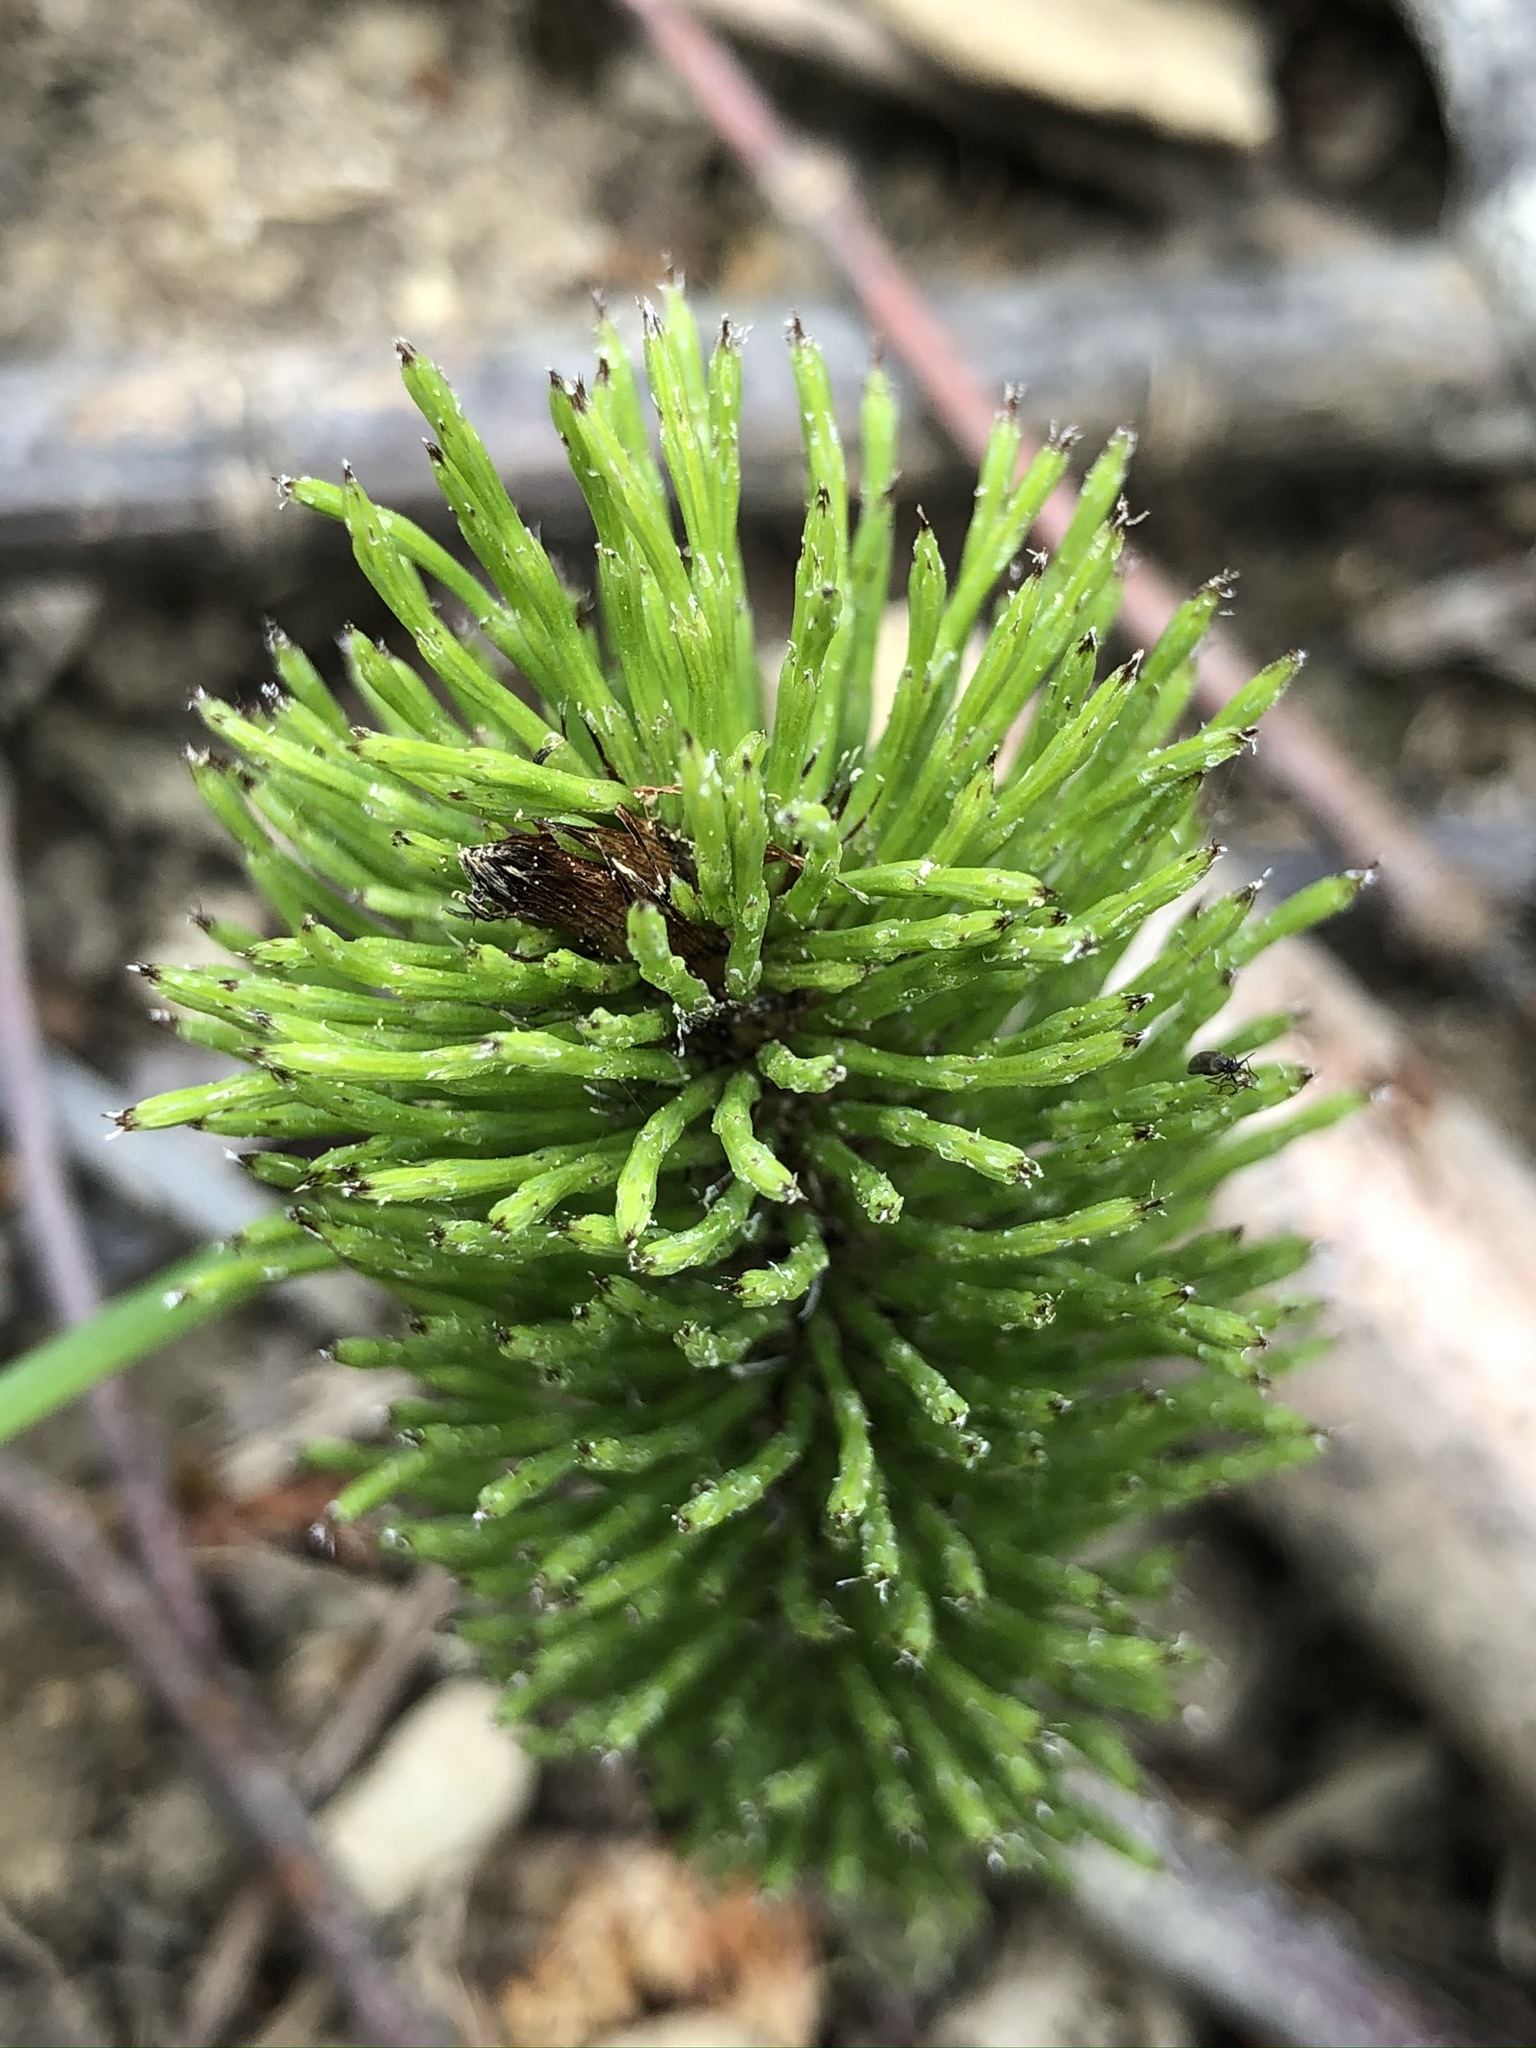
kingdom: Plantae
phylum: Tracheophyta
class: Polypodiopsida
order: Equisetales
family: Equisetaceae
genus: Equisetum
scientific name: Equisetum telmateia
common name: Great horsetail
